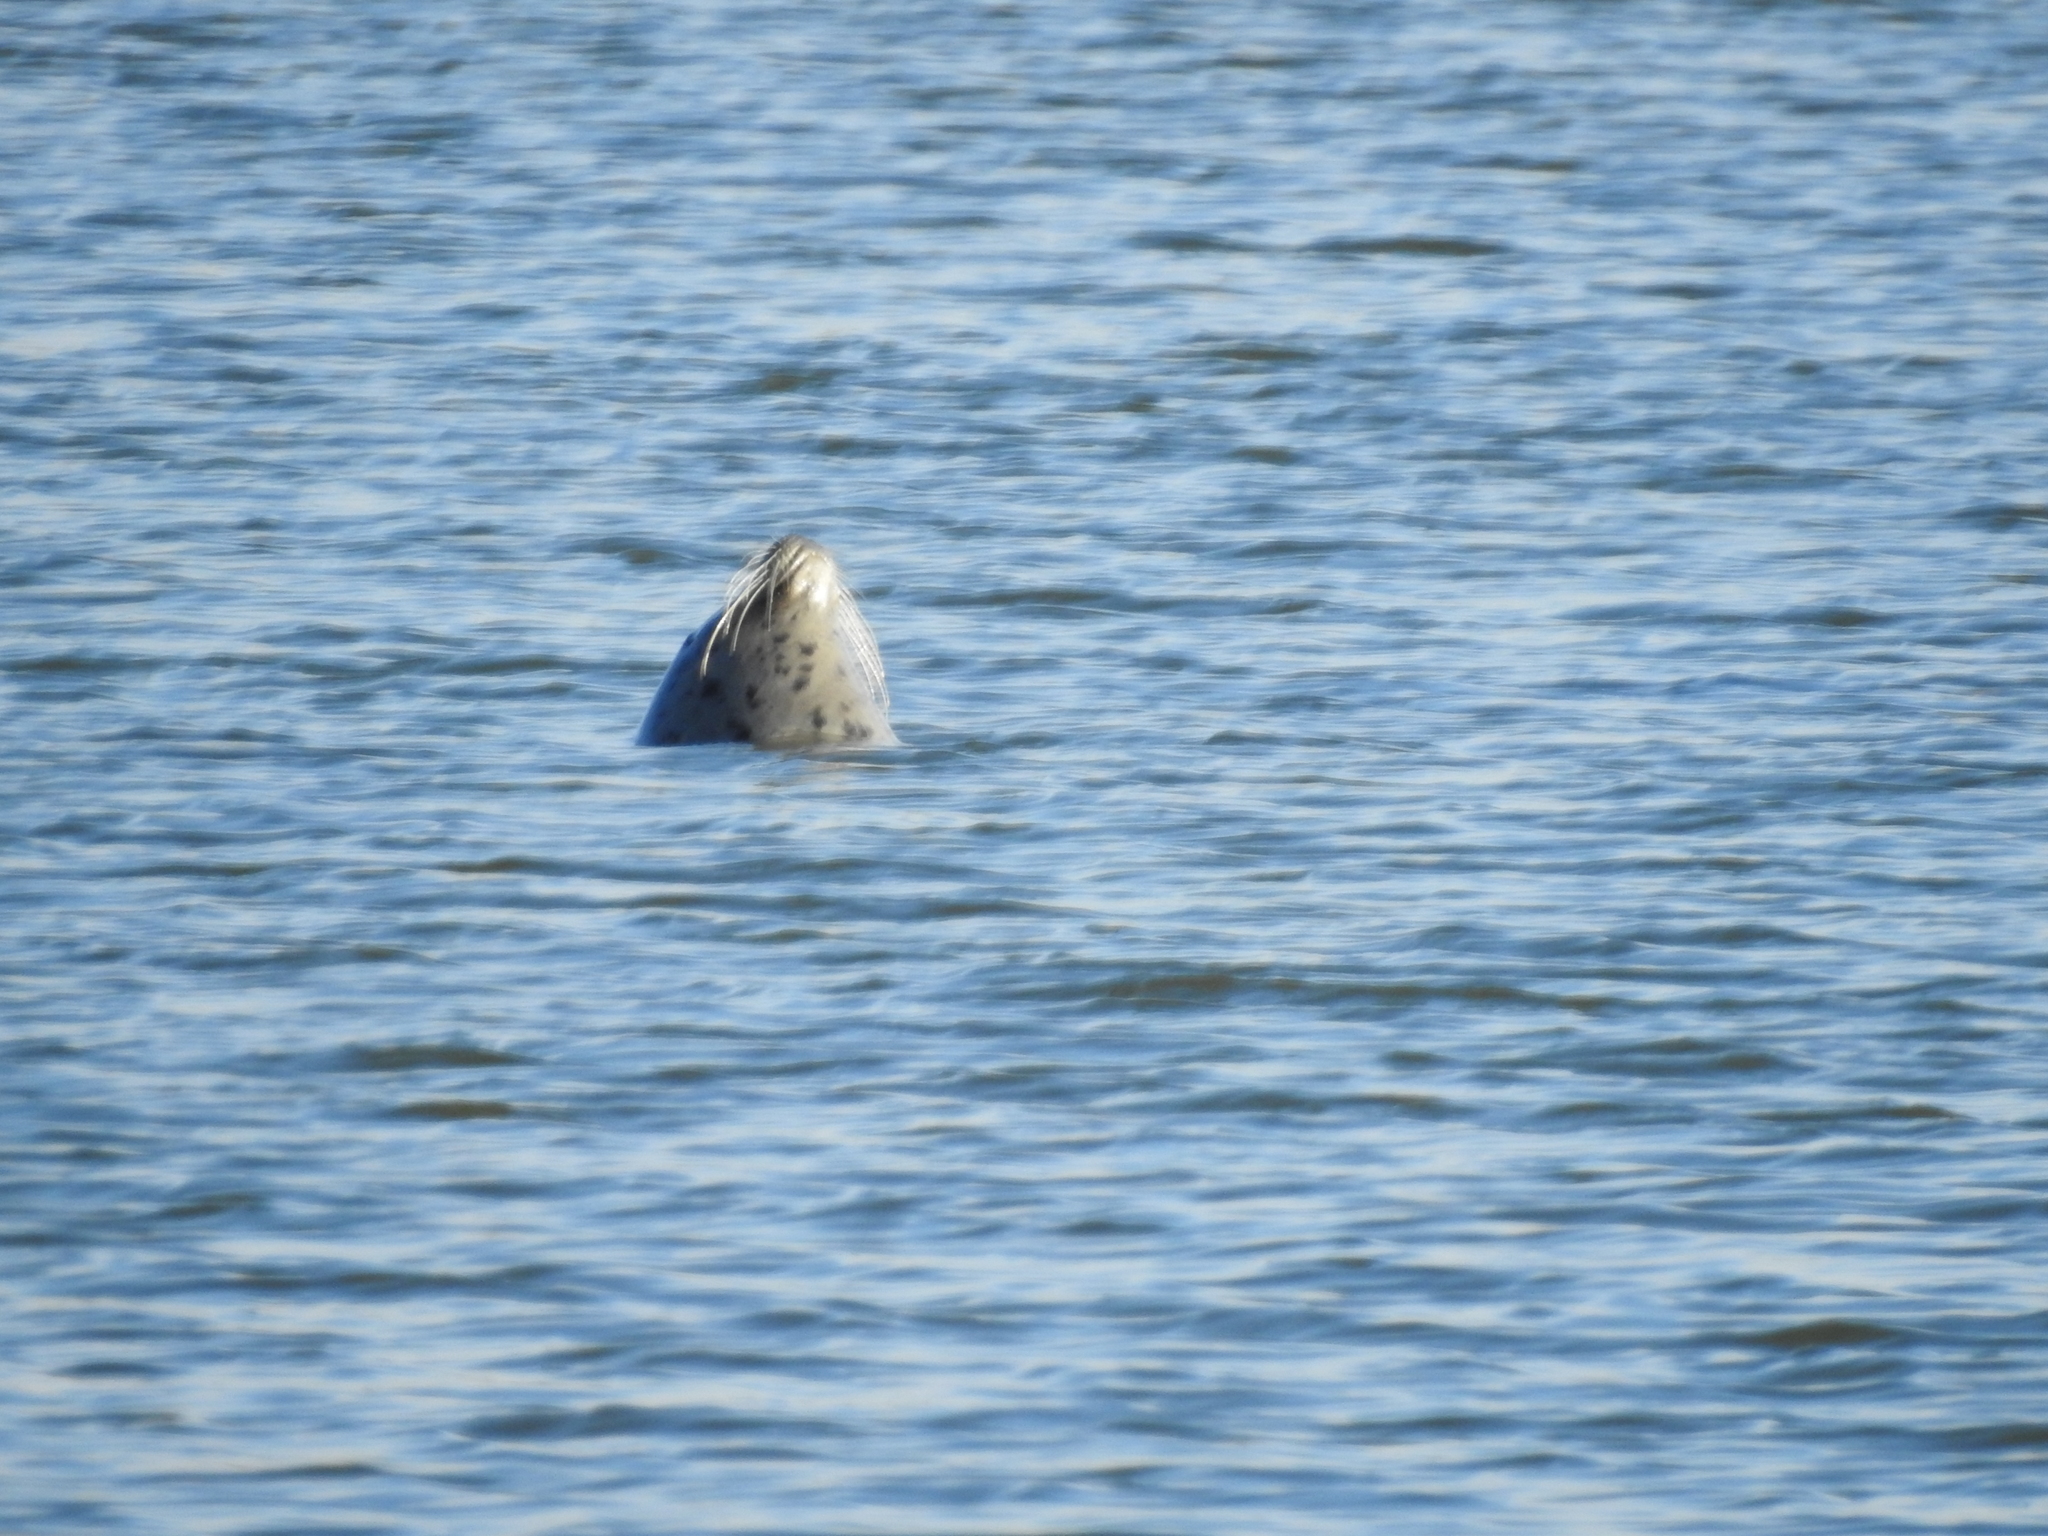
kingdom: Animalia
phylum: Chordata
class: Mammalia
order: Carnivora
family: Phocidae
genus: Phoca
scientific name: Phoca vitulina
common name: Harbor seal
